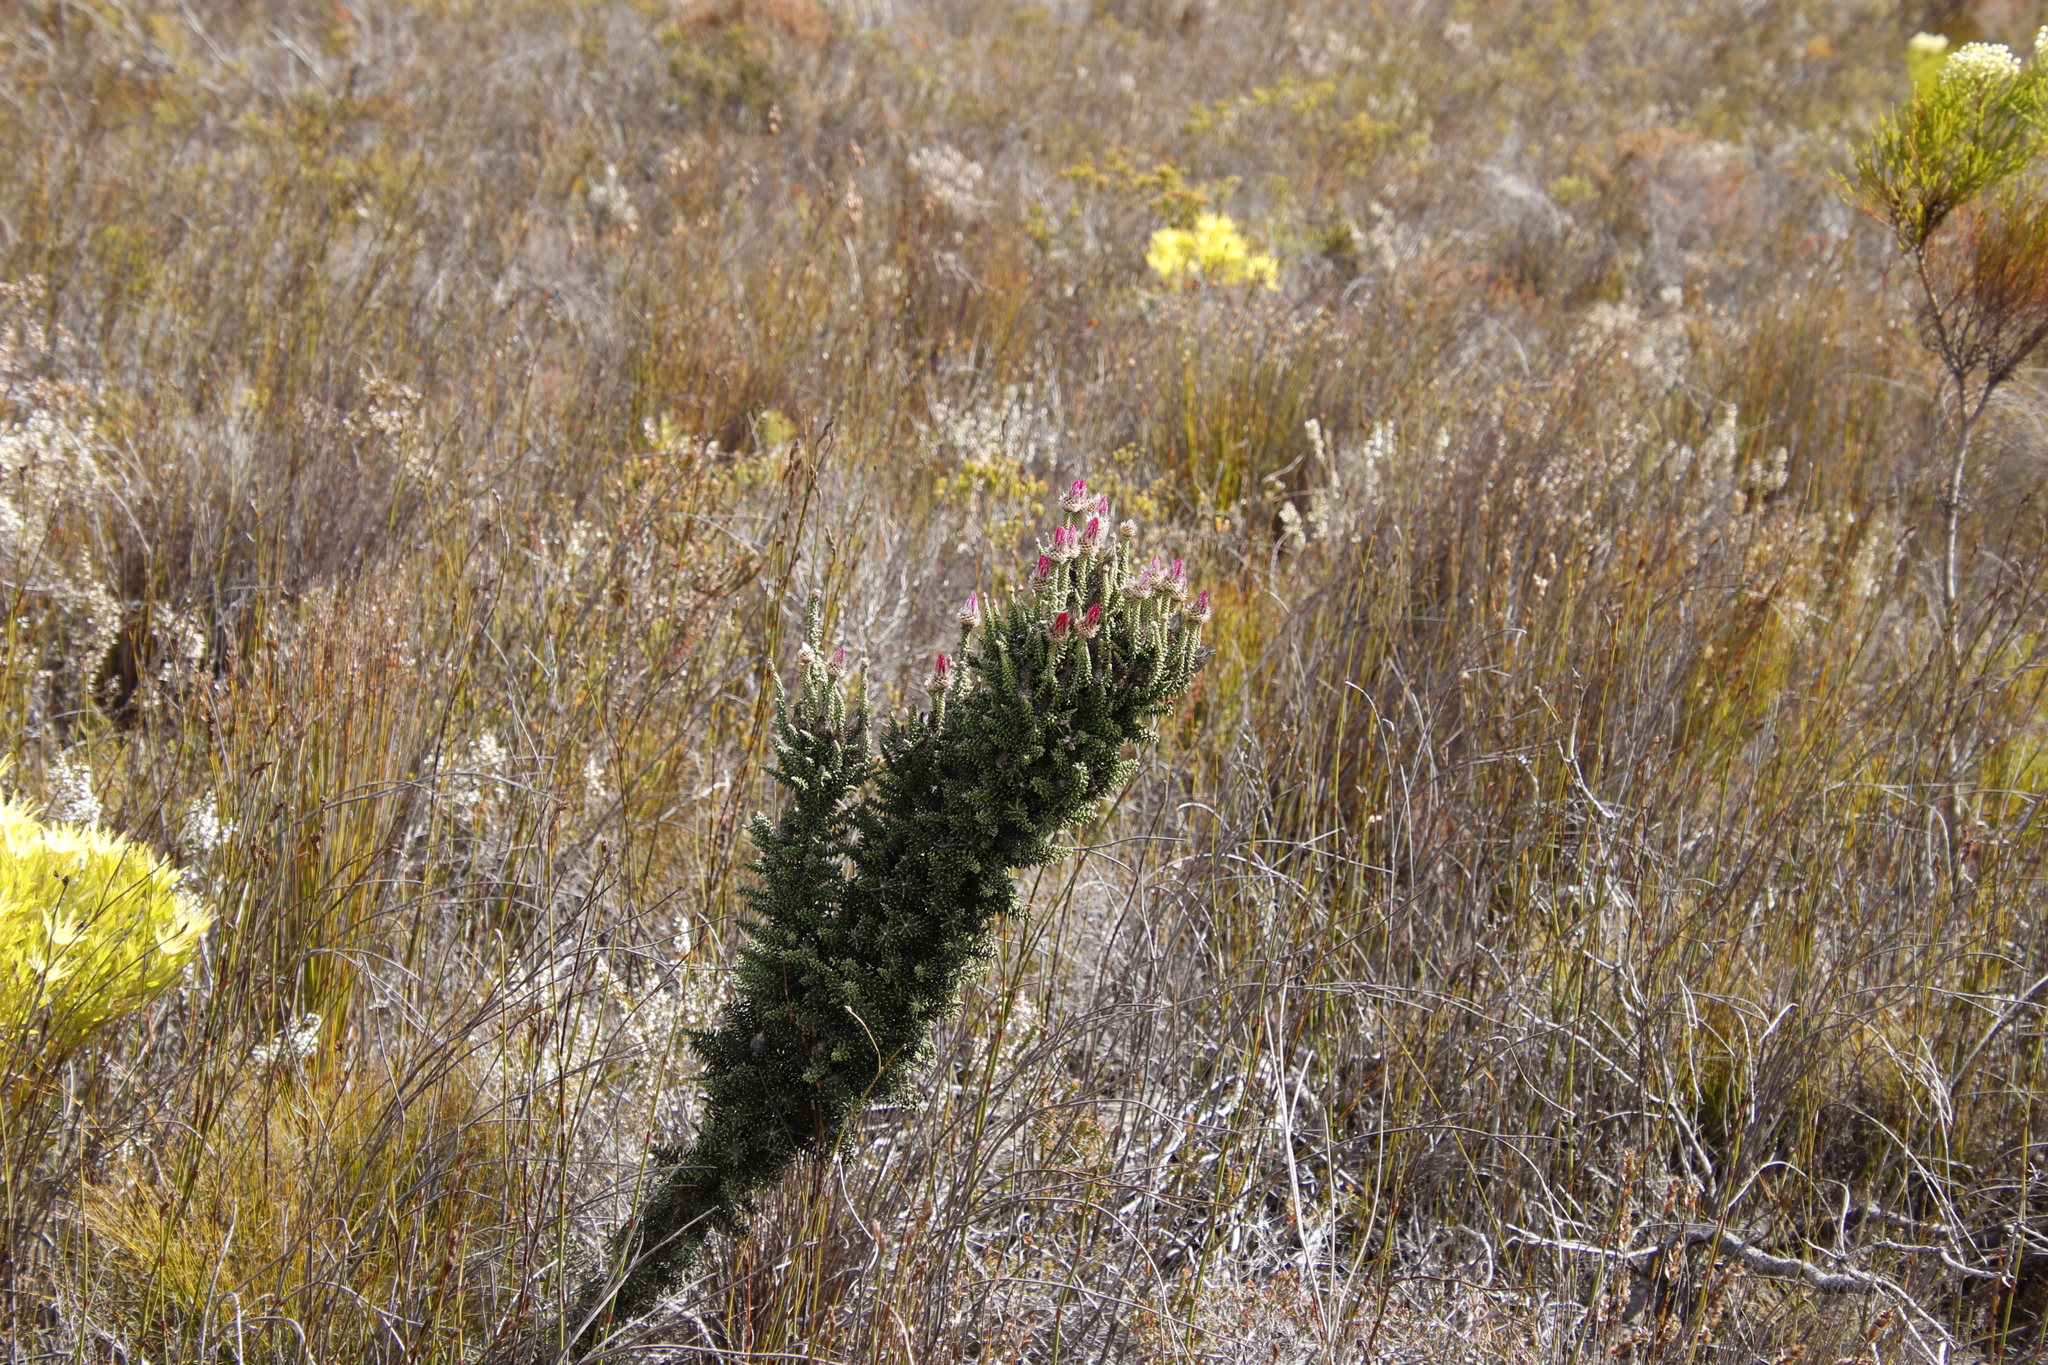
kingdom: Plantae
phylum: Tracheophyta
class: Magnoliopsida
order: Asterales
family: Asteraceae
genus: Phaenocoma
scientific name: Phaenocoma prolifera
